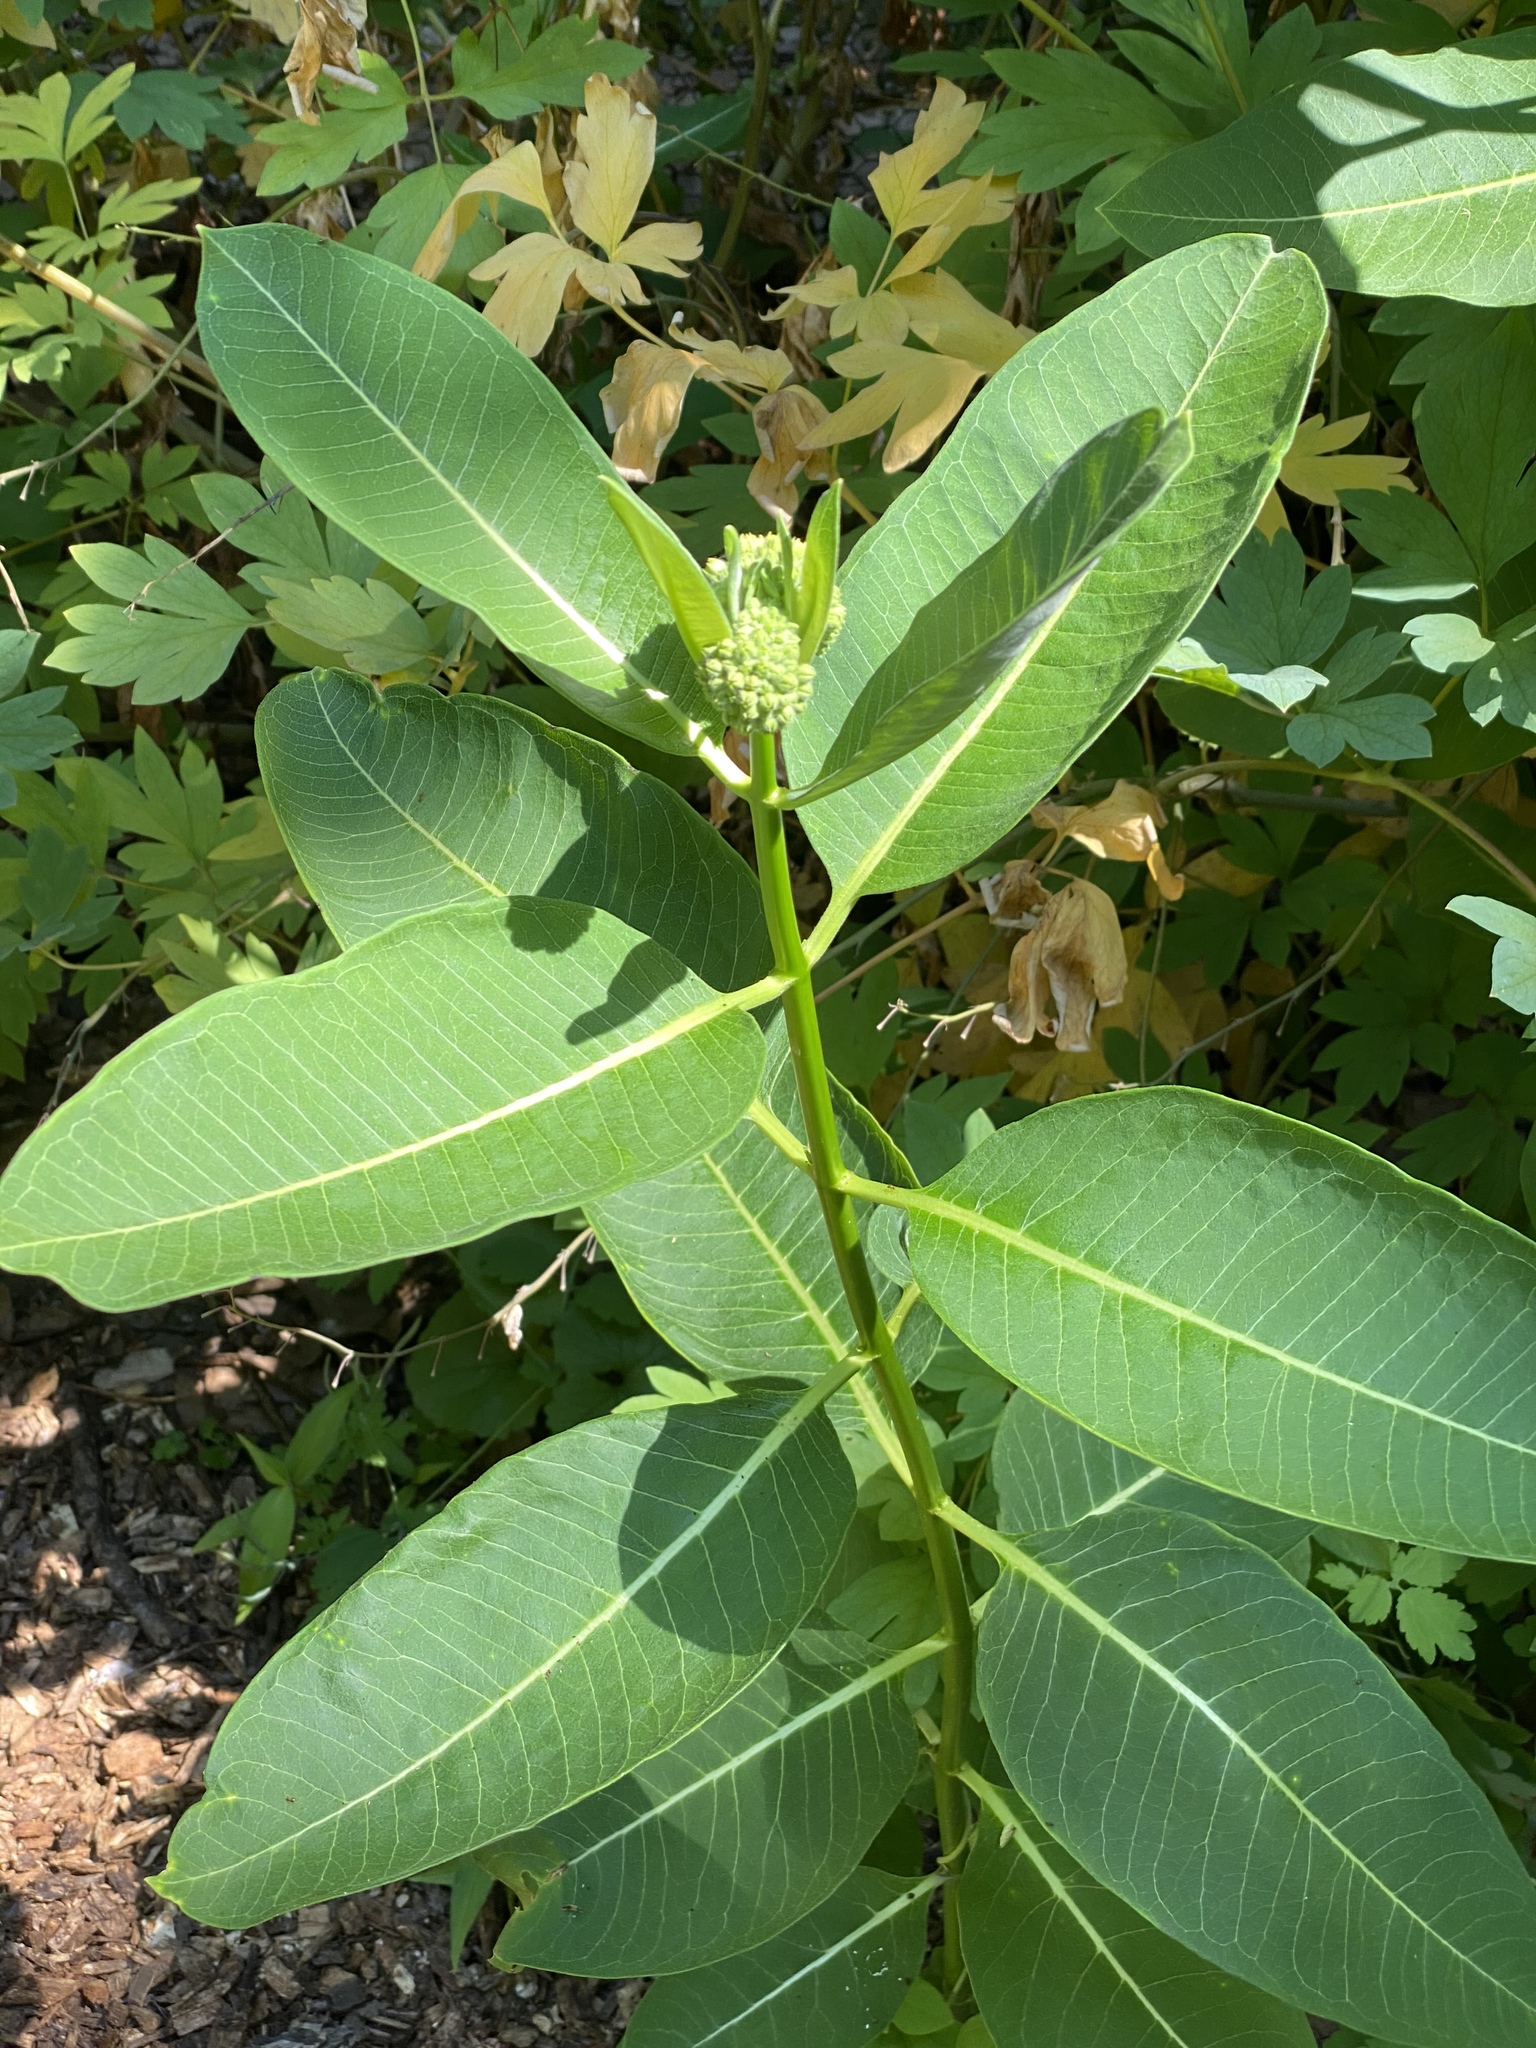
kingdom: Plantae
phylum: Tracheophyta
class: Magnoliopsida
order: Gentianales
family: Apocynaceae
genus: Asclepias
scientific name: Asclepias syriaca
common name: Common milkweed
